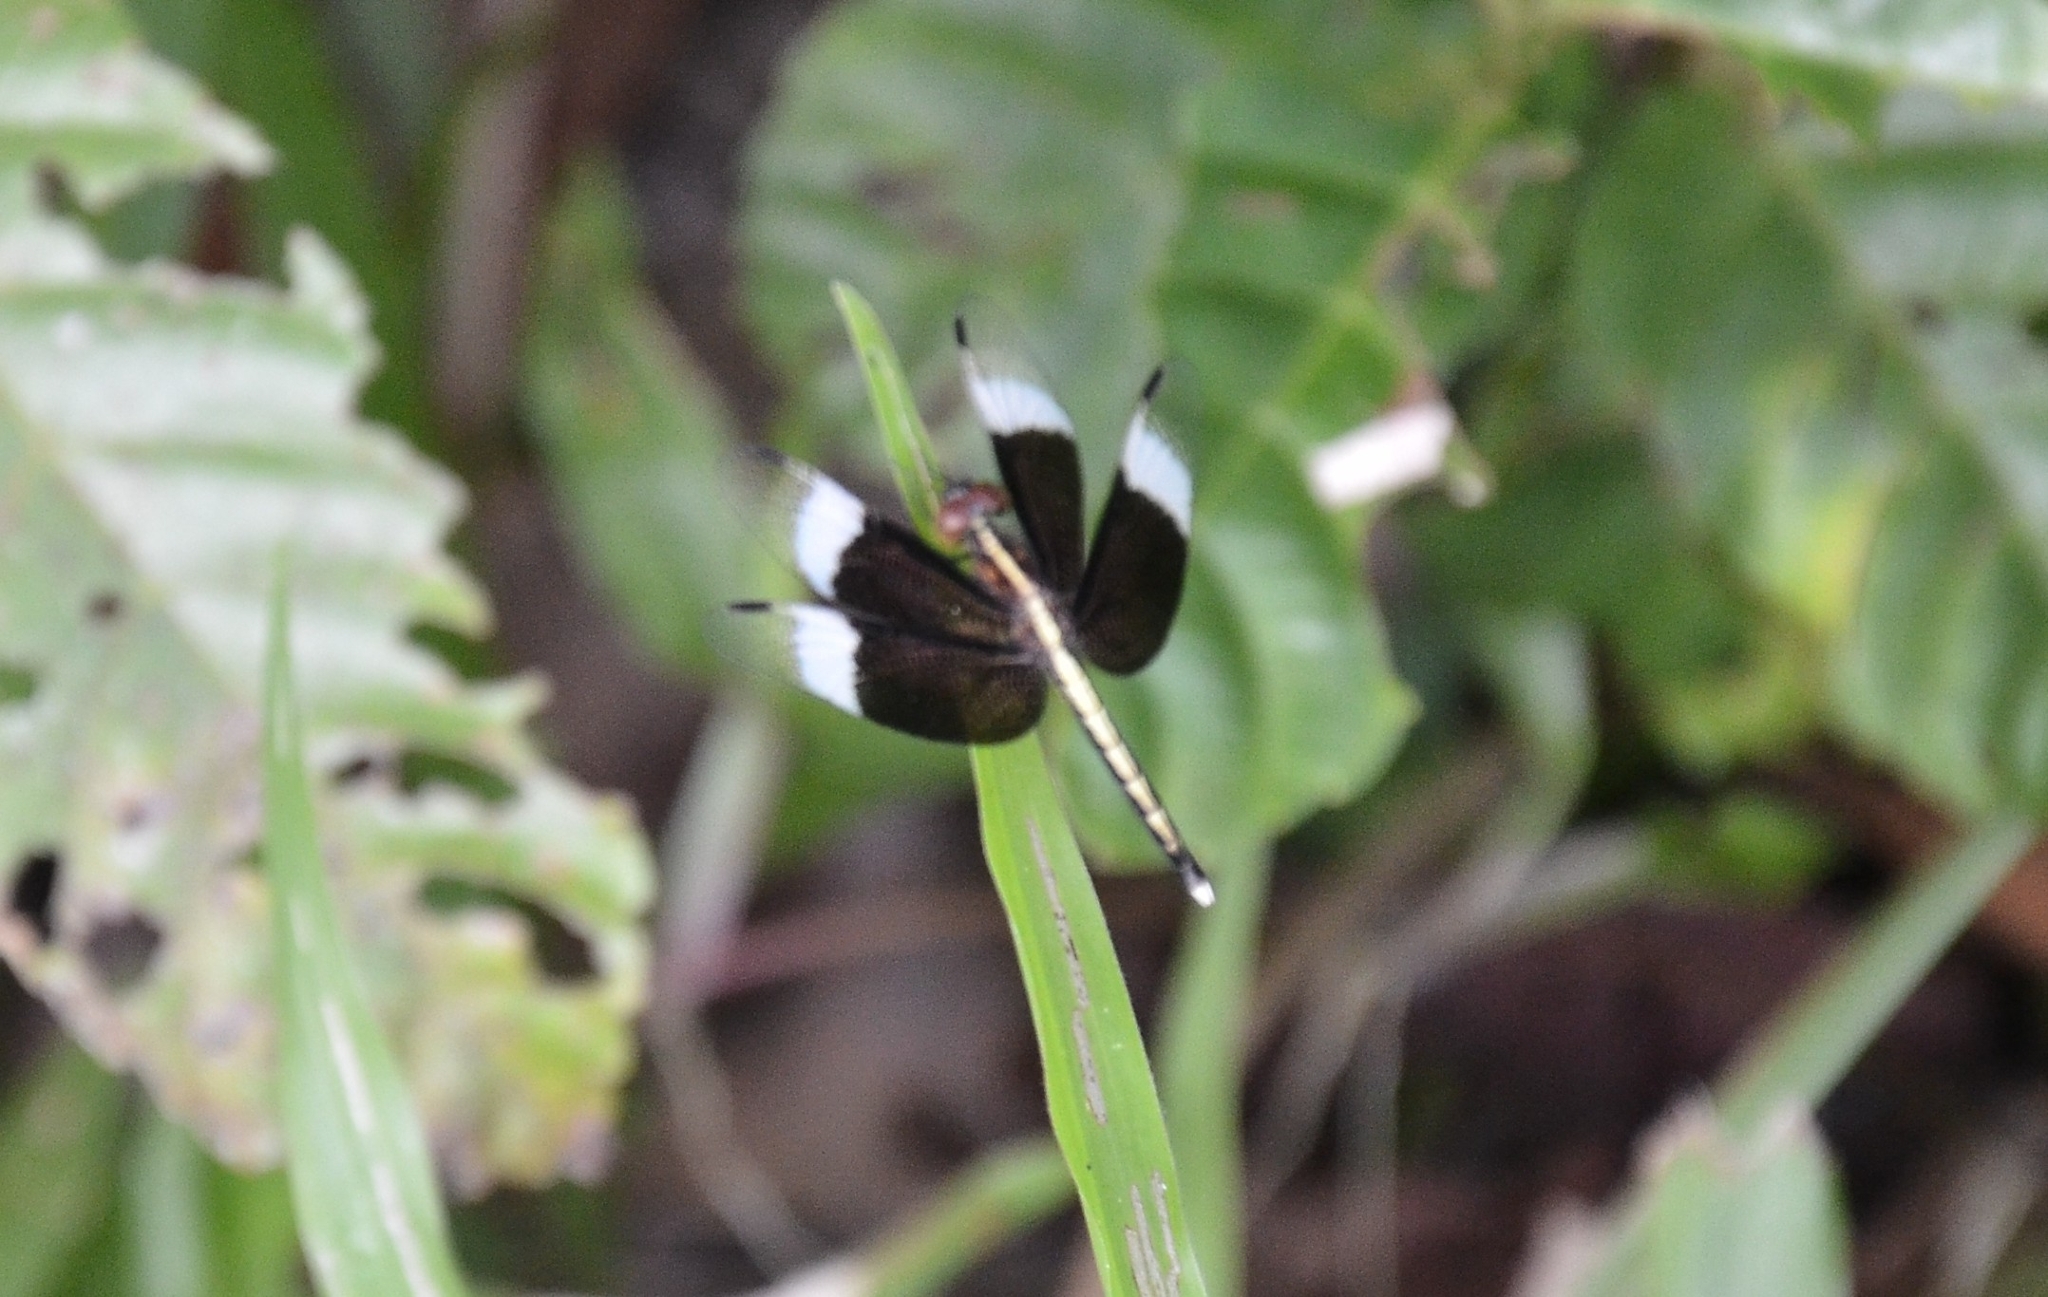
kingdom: Animalia
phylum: Arthropoda
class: Insecta
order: Odonata
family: Libellulidae
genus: Neurothemis
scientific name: Neurothemis tullia
